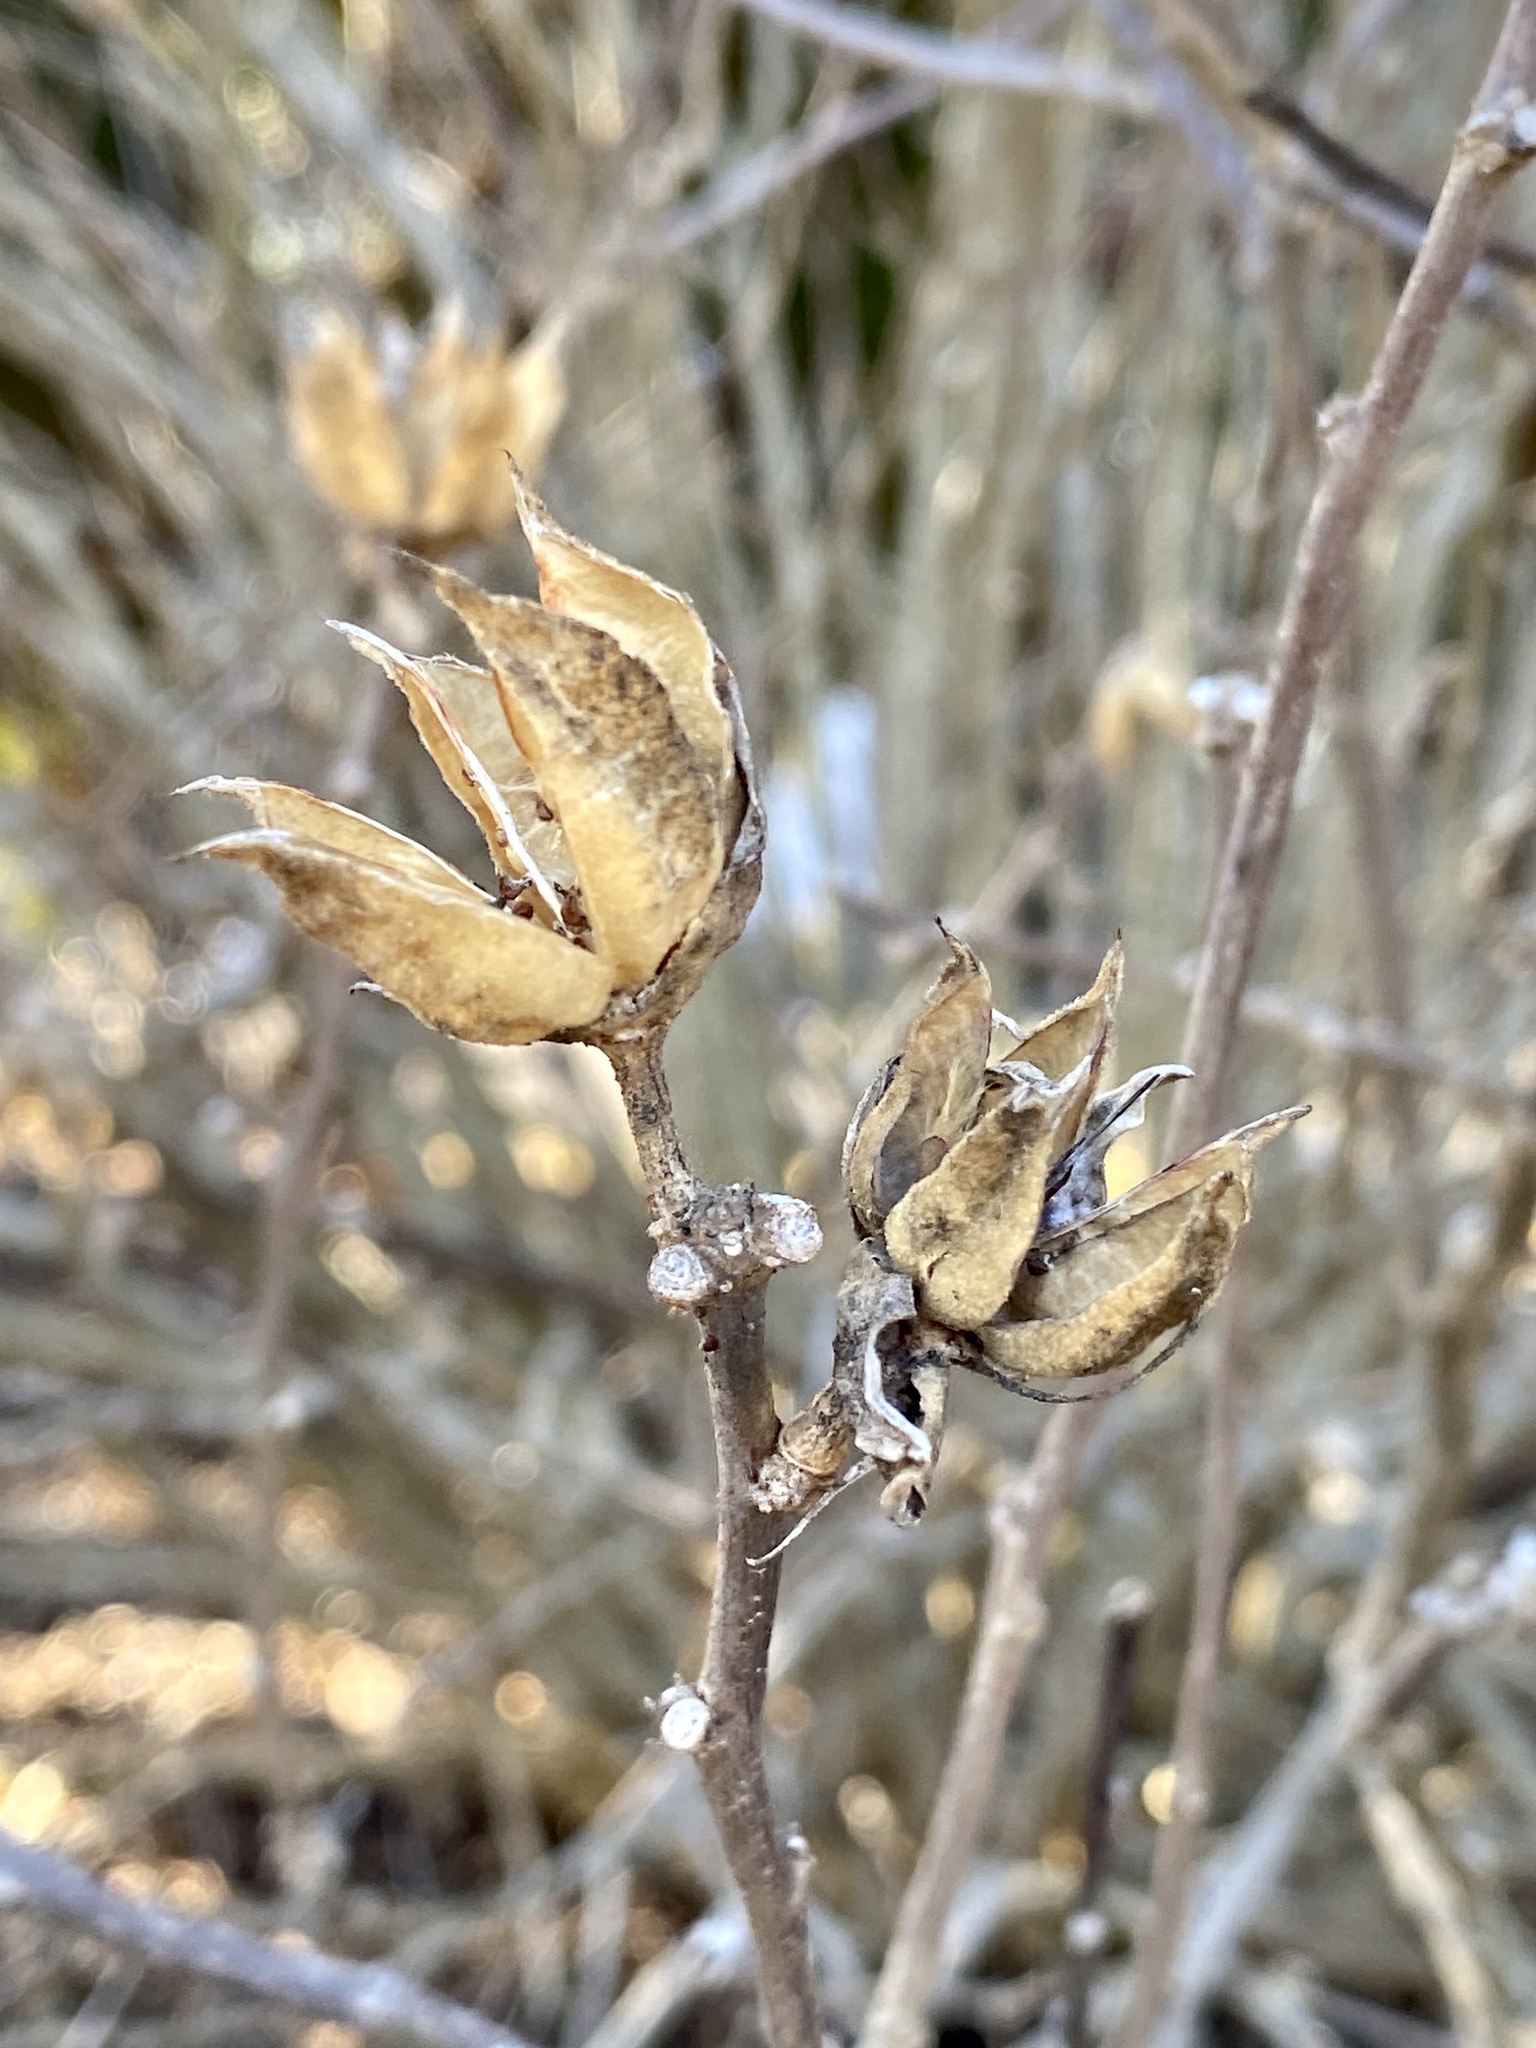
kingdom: Plantae
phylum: Tracheophyta
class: Magnoliopsida
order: Malvales
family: Malvaceae
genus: Hibiscus
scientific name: Hibiscus syriacus
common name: Syrian ketmia
